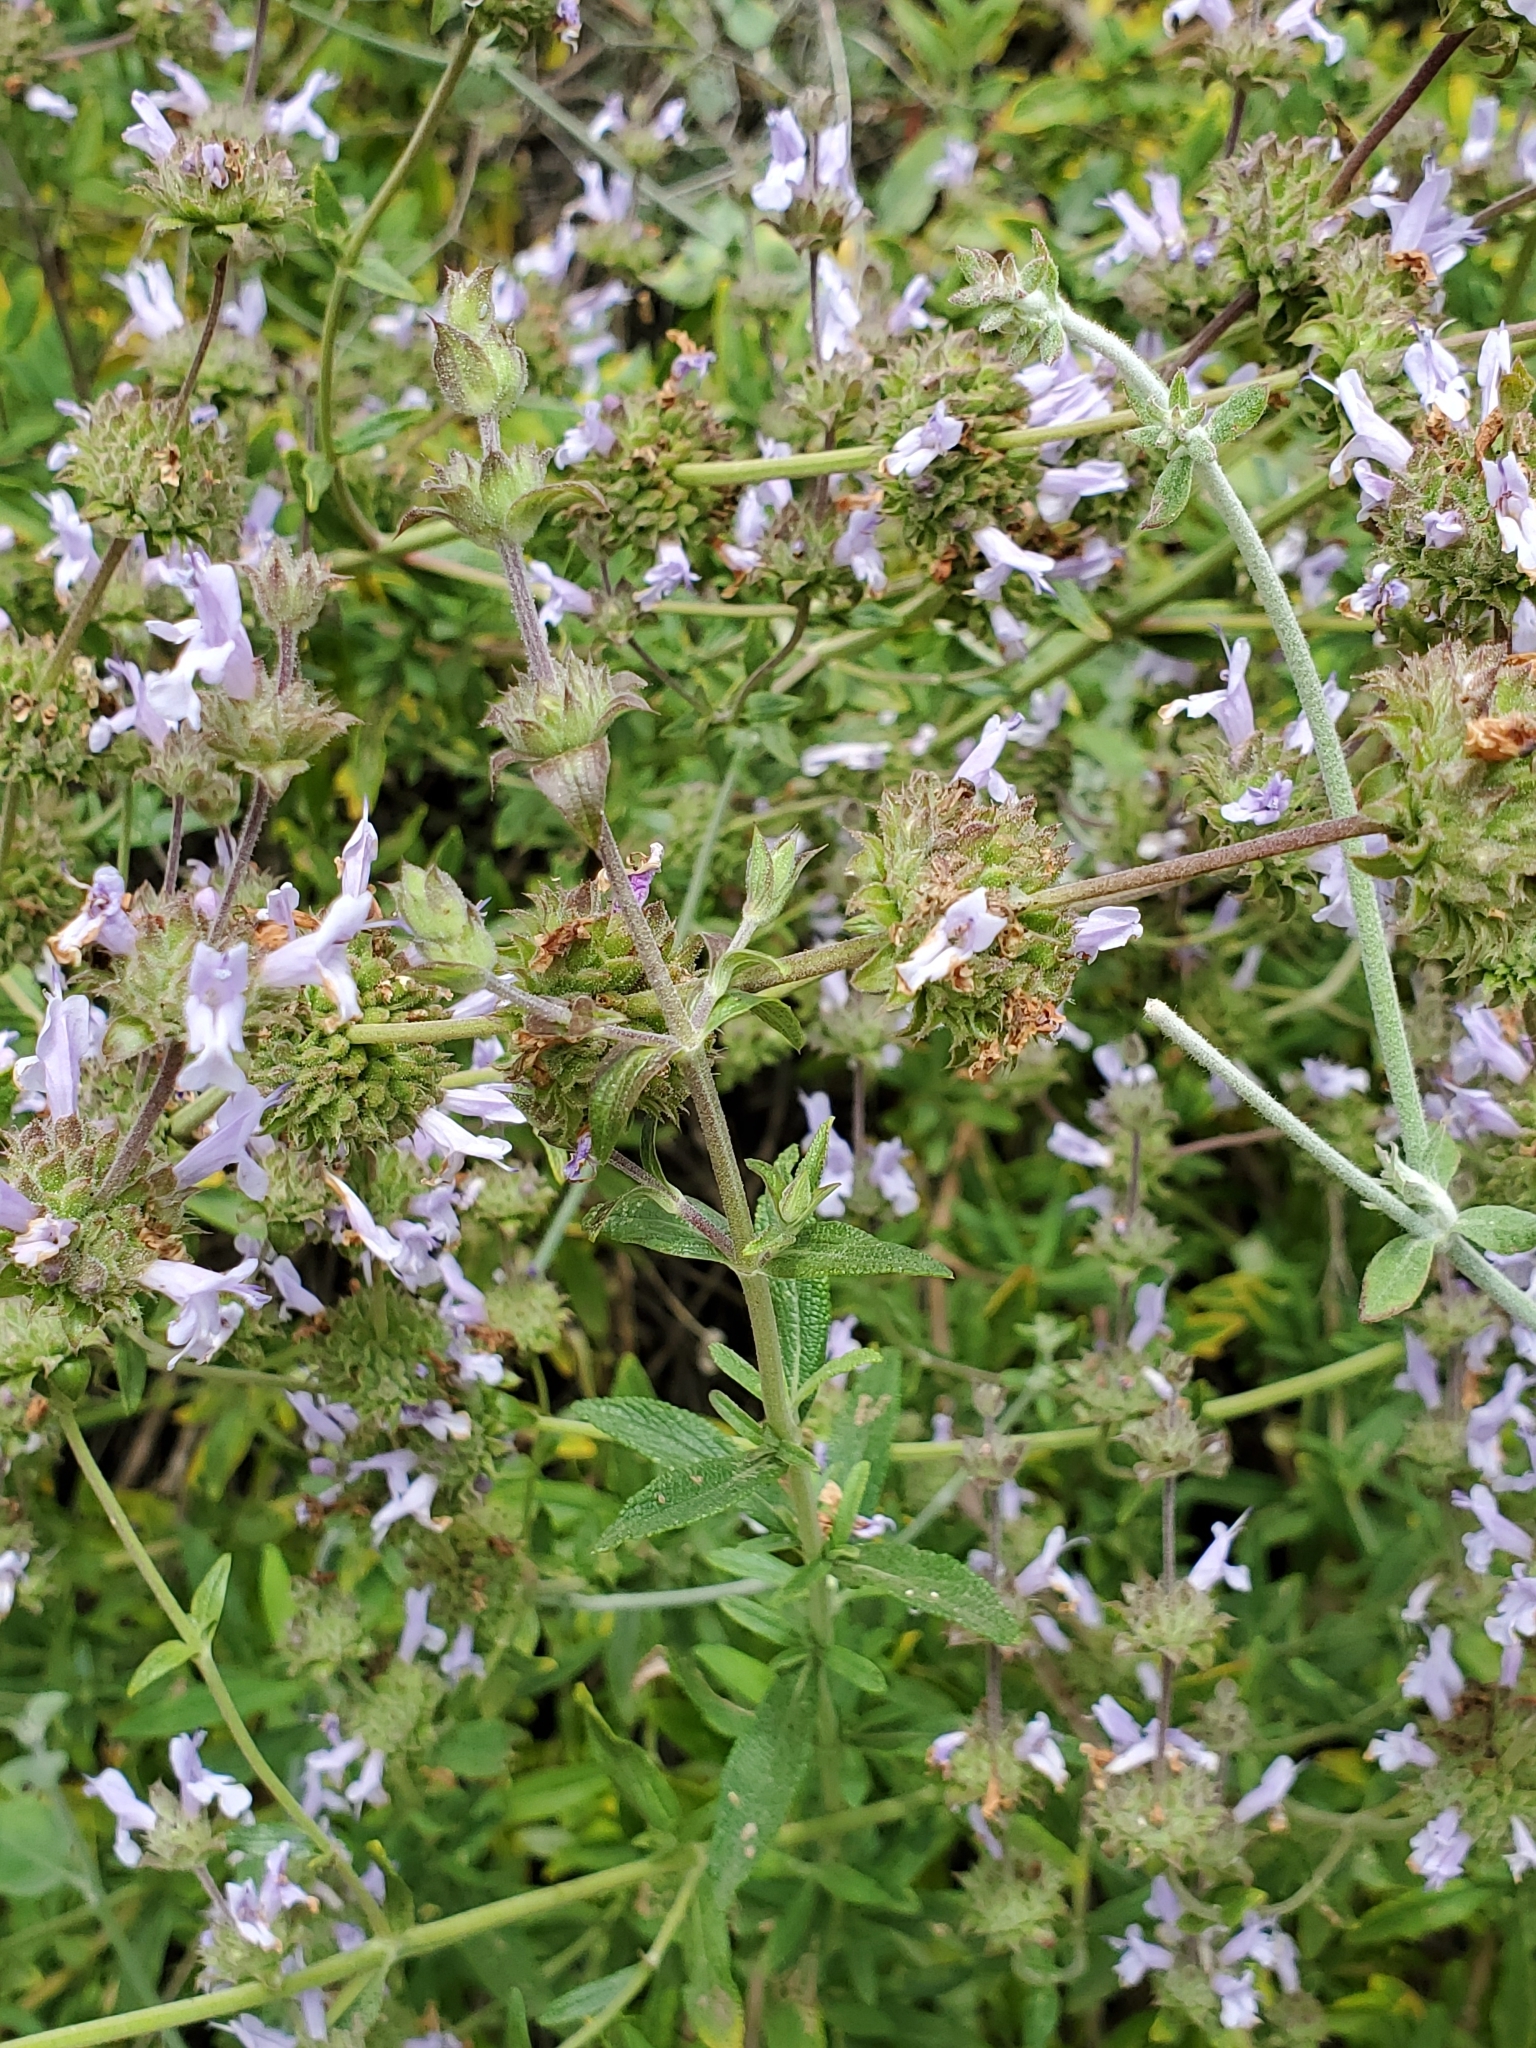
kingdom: Plantae
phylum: Tracheophyta
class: Magnoliopsida
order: Lamiales
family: Lamiaceae
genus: Salvia
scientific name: Salvia mellifera
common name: Black sage
